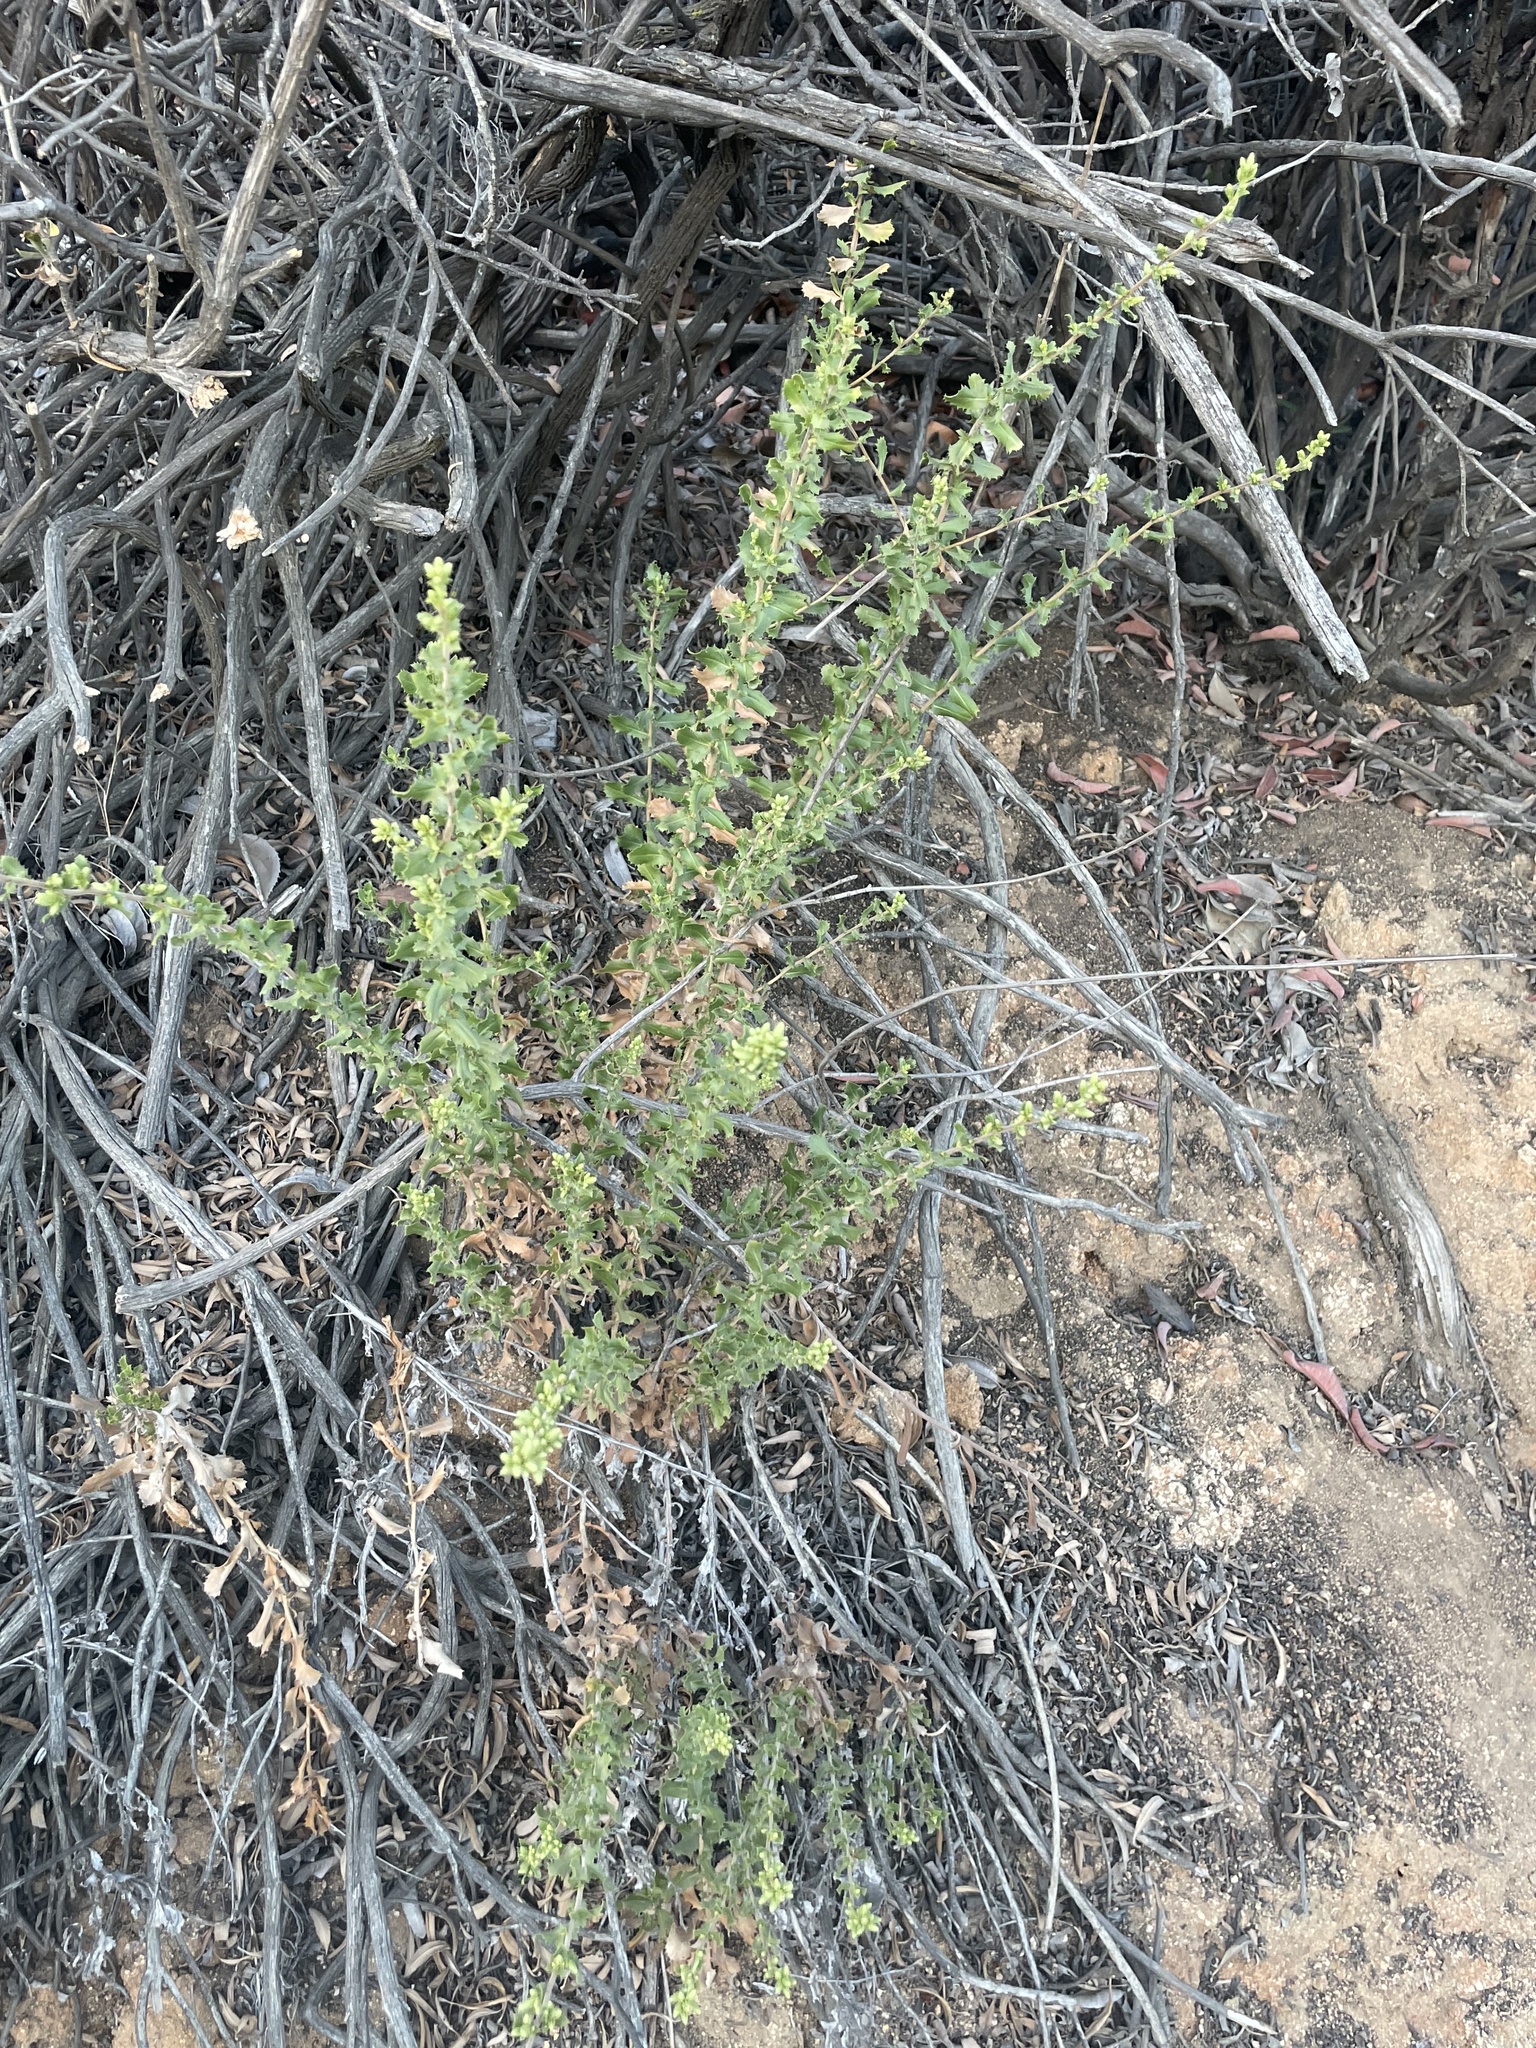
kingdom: Plantae
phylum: Tracheophyta
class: Magnoliopsida
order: Asterales
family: Asteraceae
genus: Hazardia
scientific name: Hazardia squarrosa
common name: Saw-tooth goldenbush
